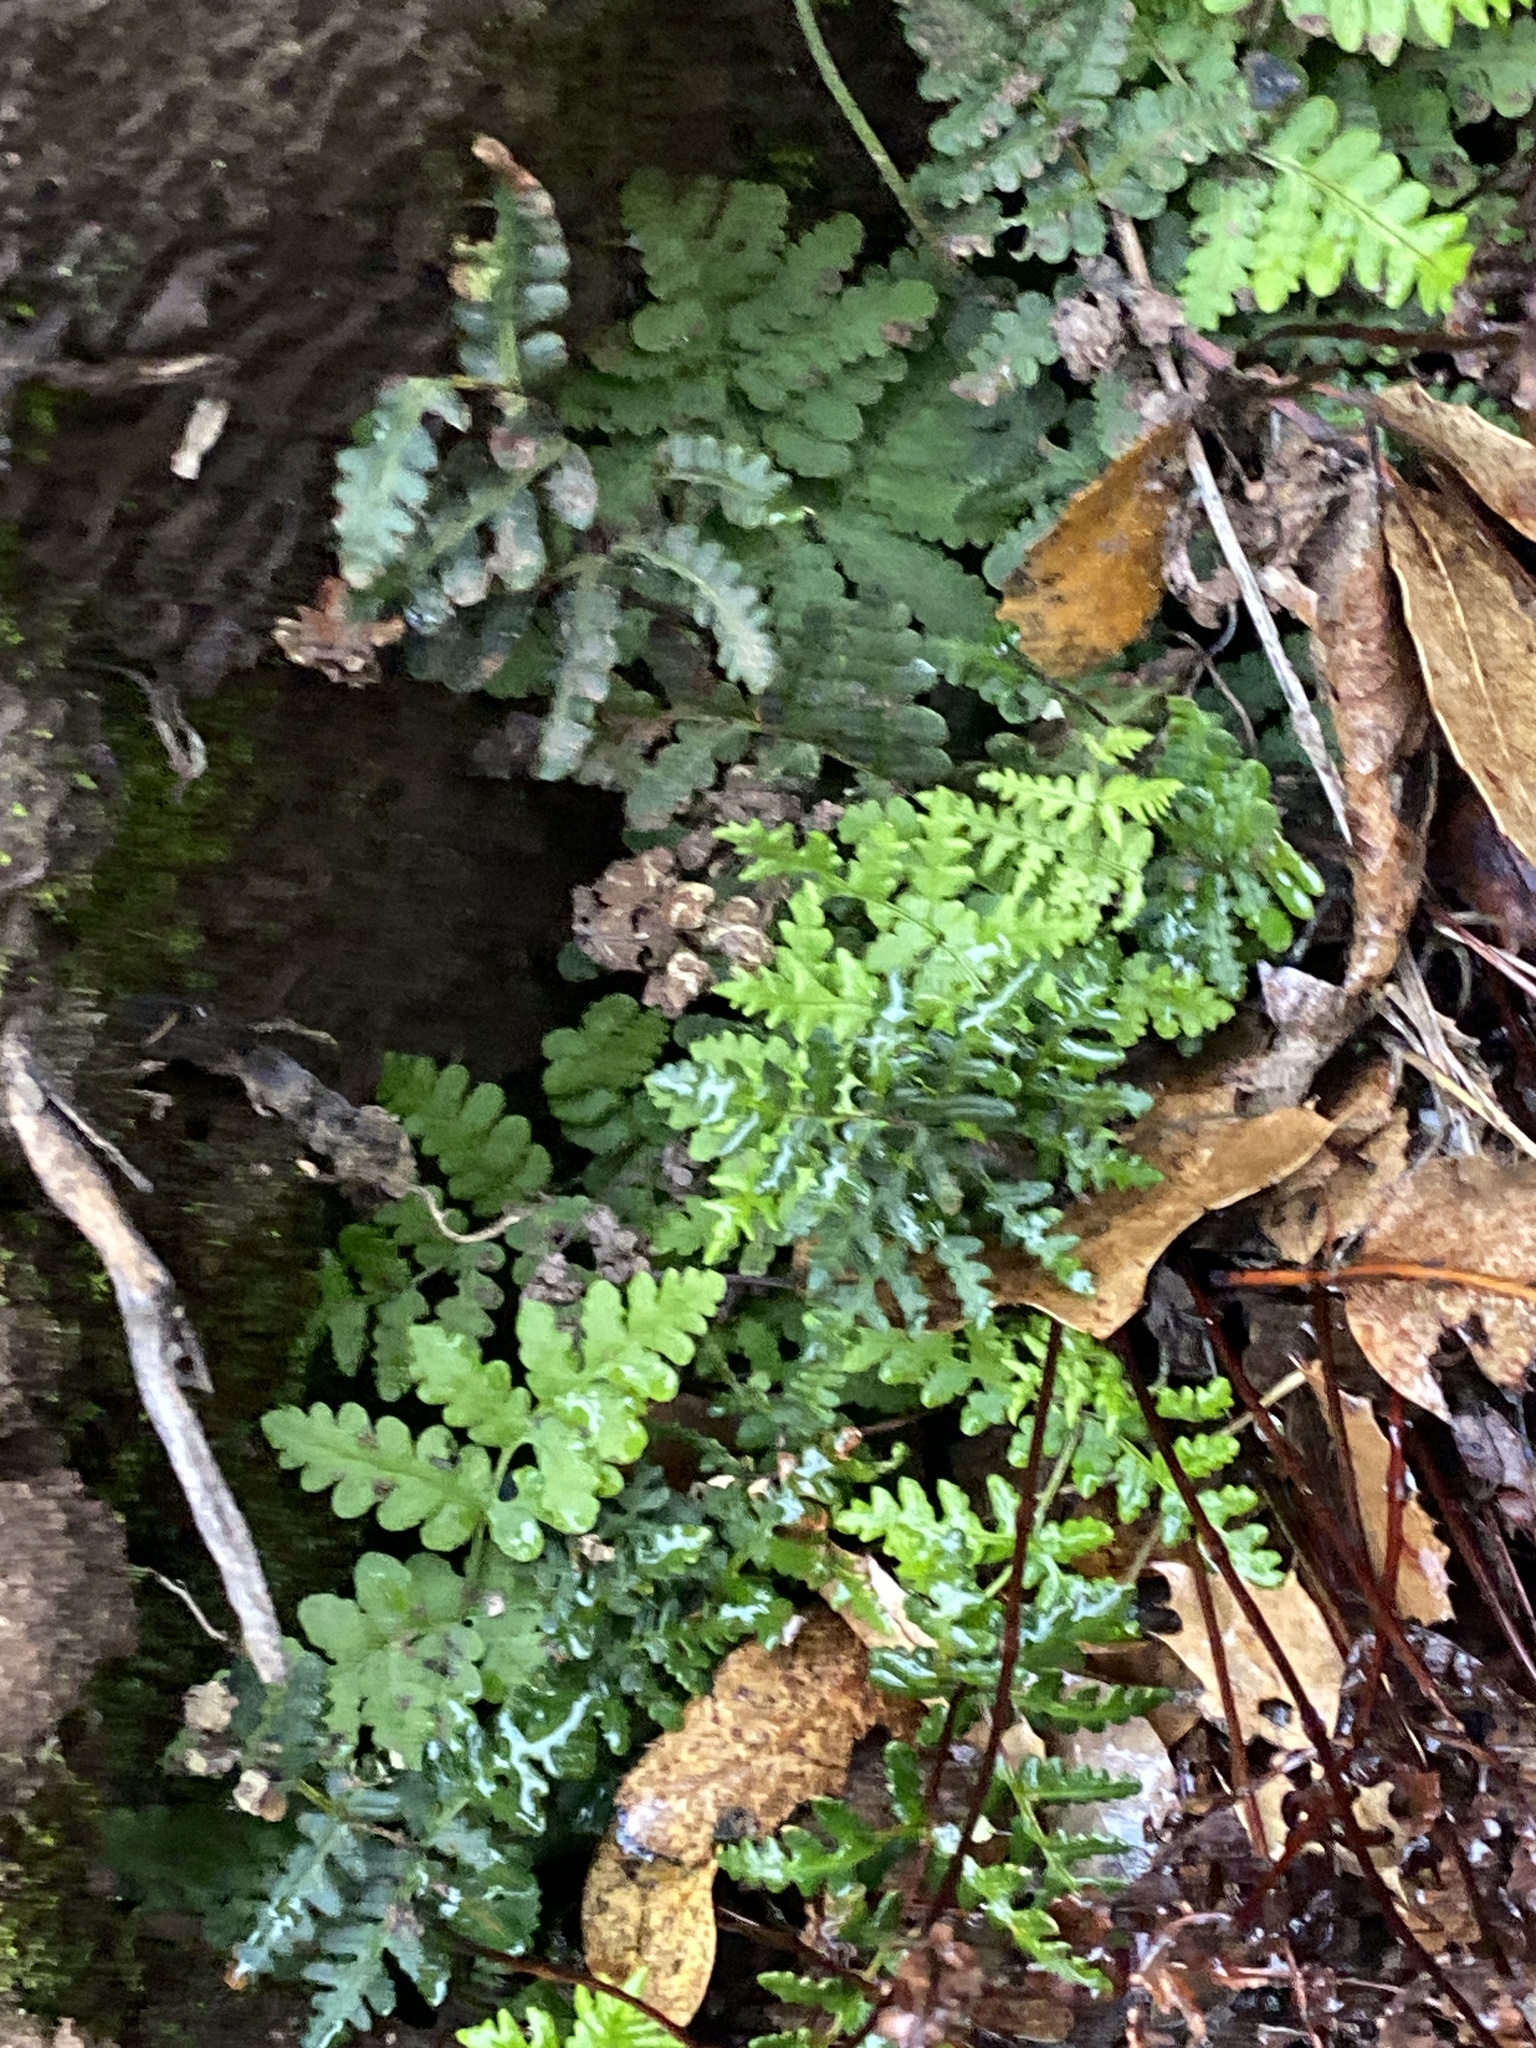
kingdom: Plantae
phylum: Tracheophyta
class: Polypodiopsida
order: Polypodiales
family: Pteridaceae
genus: Pentagramma
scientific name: Pentagramma triangularis
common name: Gold fern
